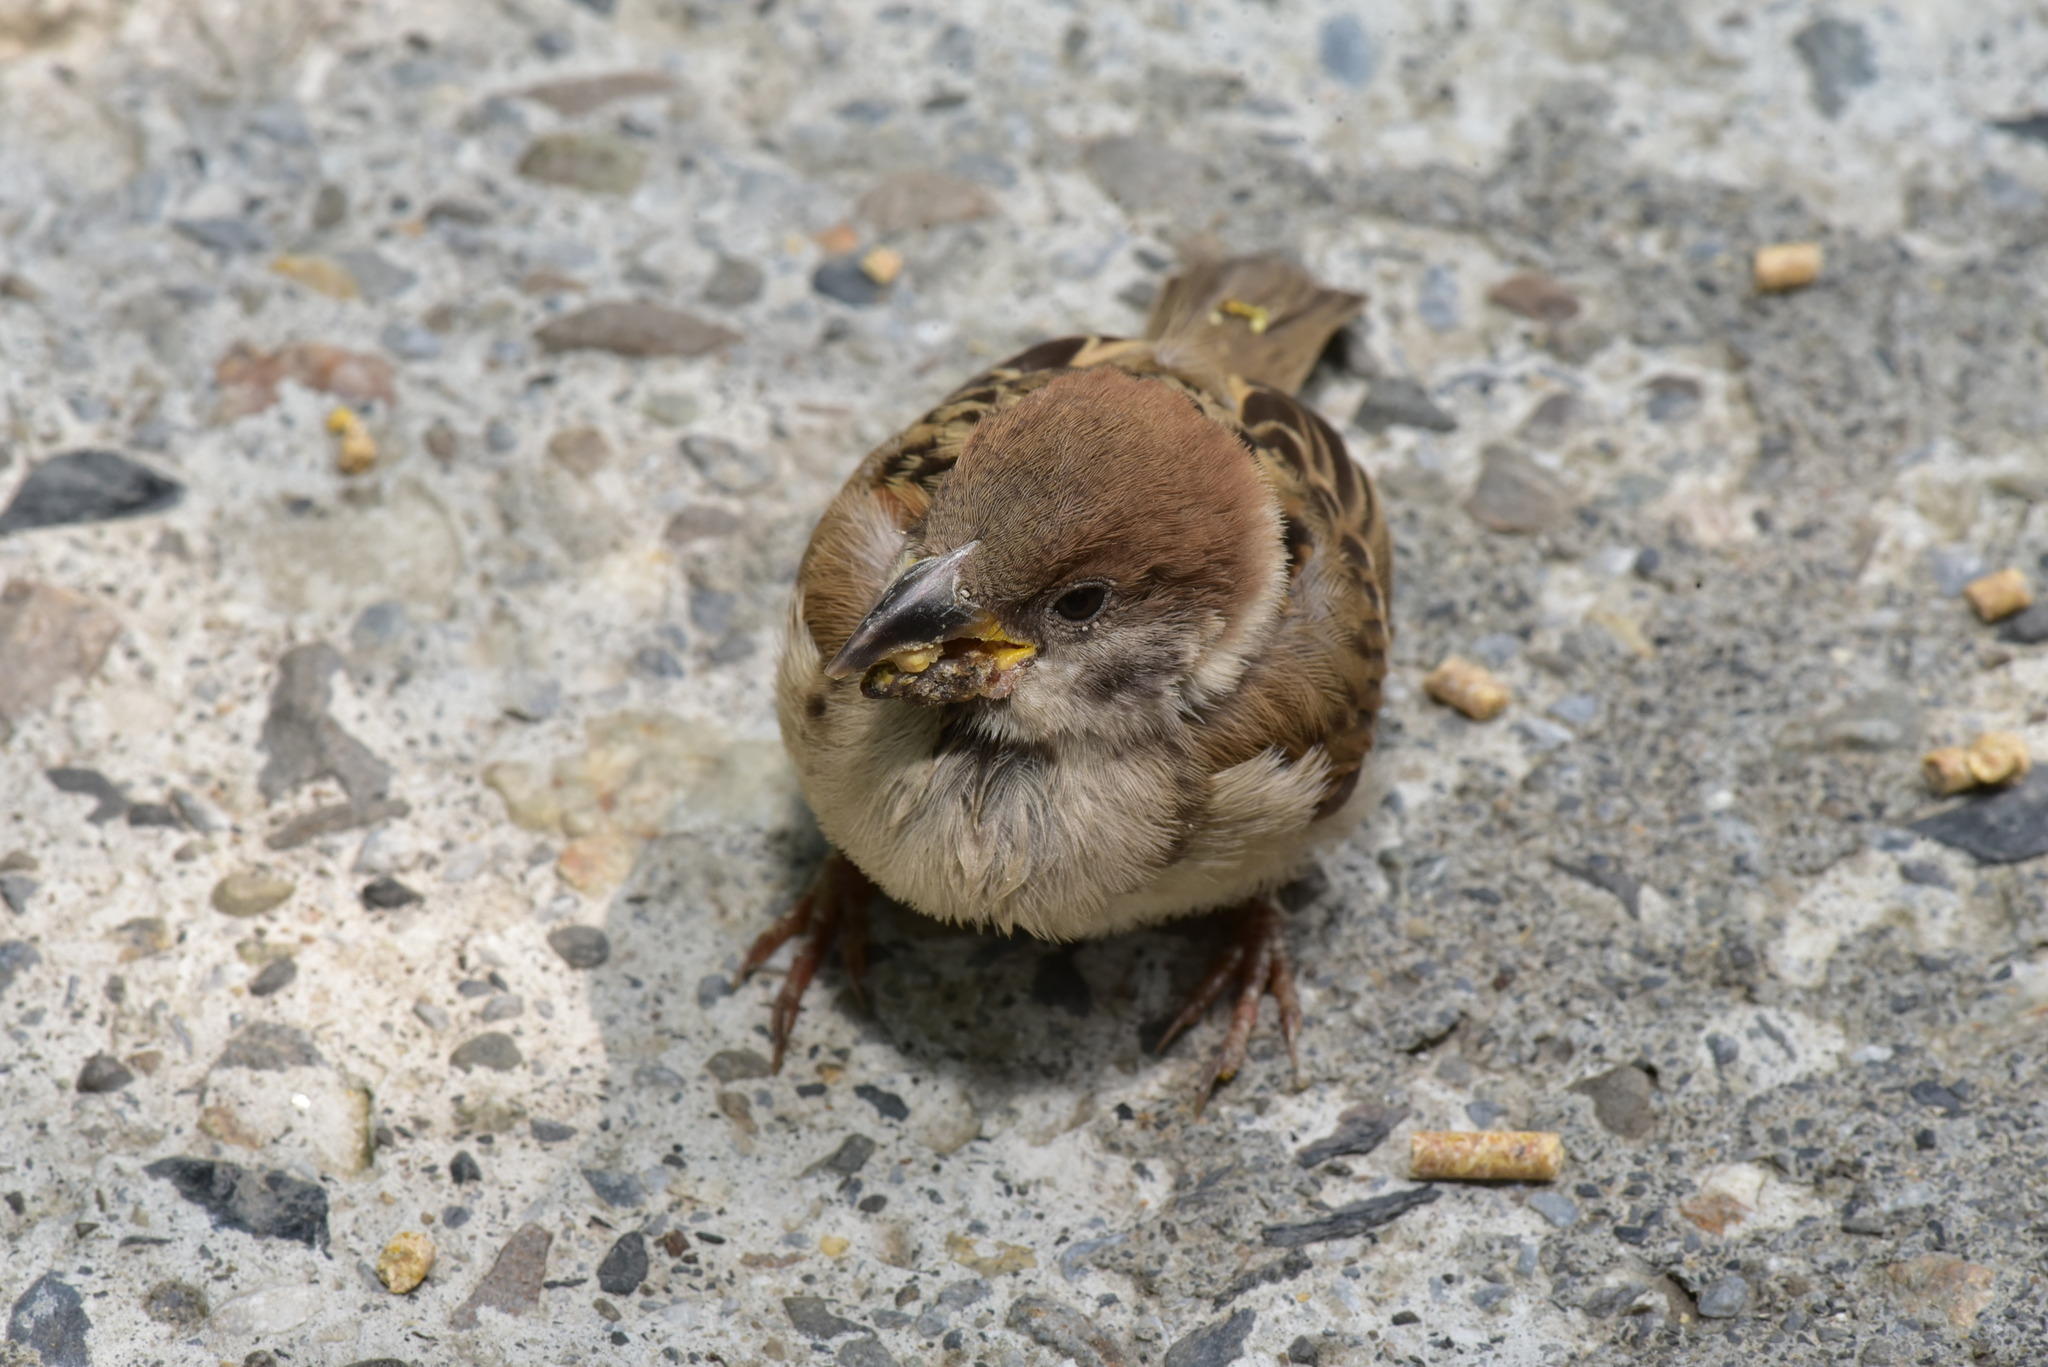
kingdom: Animalia
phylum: Chordata
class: Aves
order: Passeriformes
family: Passeridae
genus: Passer
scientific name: Passer montanus
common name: Eurasian tree sparrow
